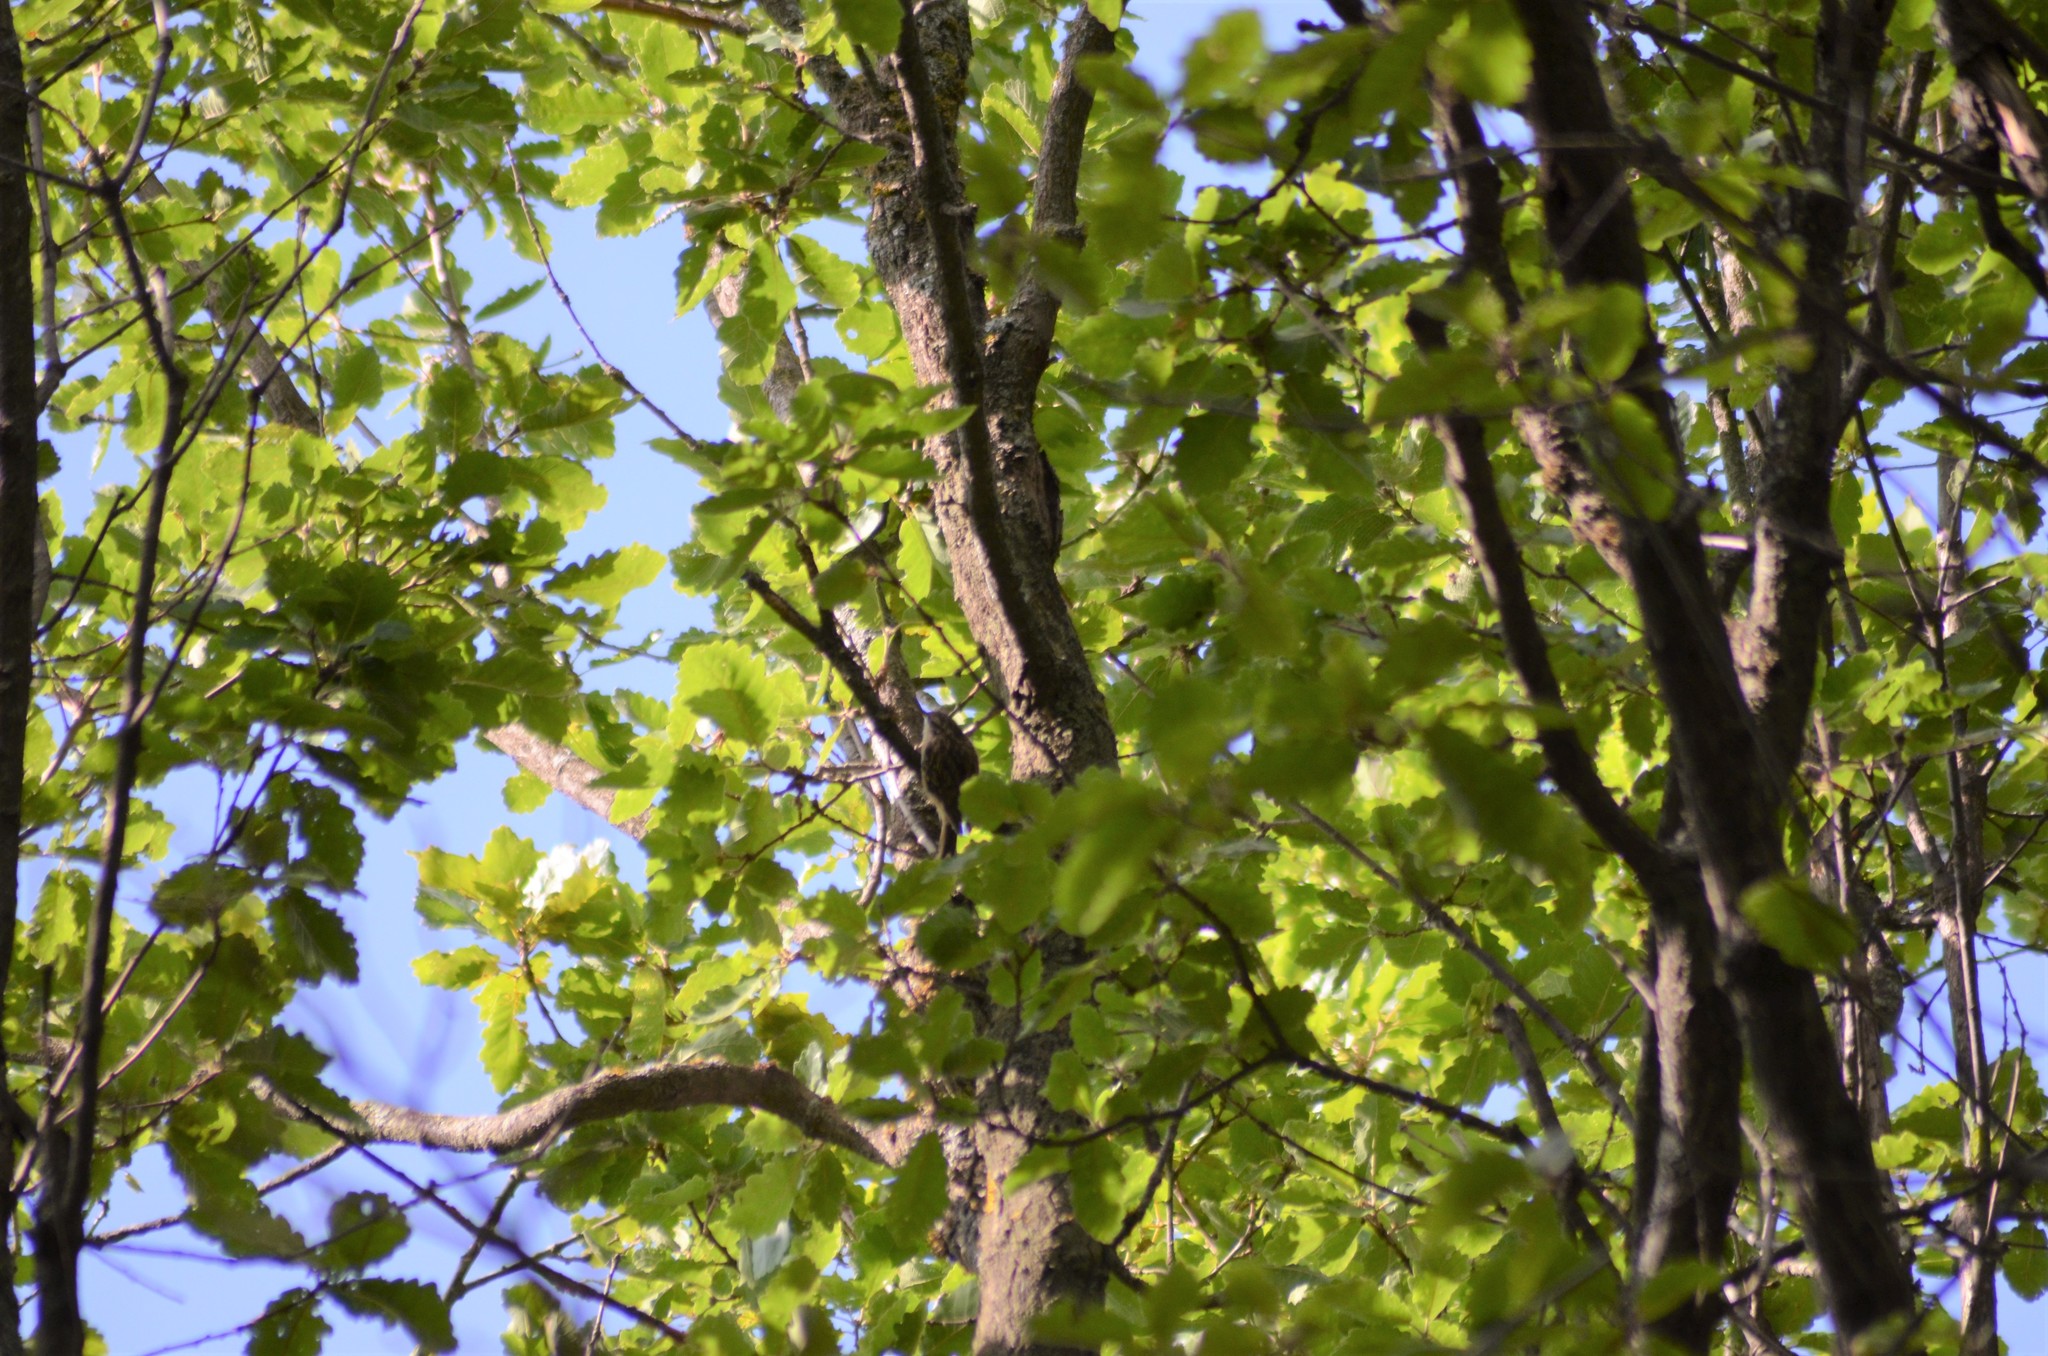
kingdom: Animalia
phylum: Chordata
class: Aves
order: Passeriformes
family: Certhiidae
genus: Certhia
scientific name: Certhia brachydactyla
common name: Short-toed treecreeper
